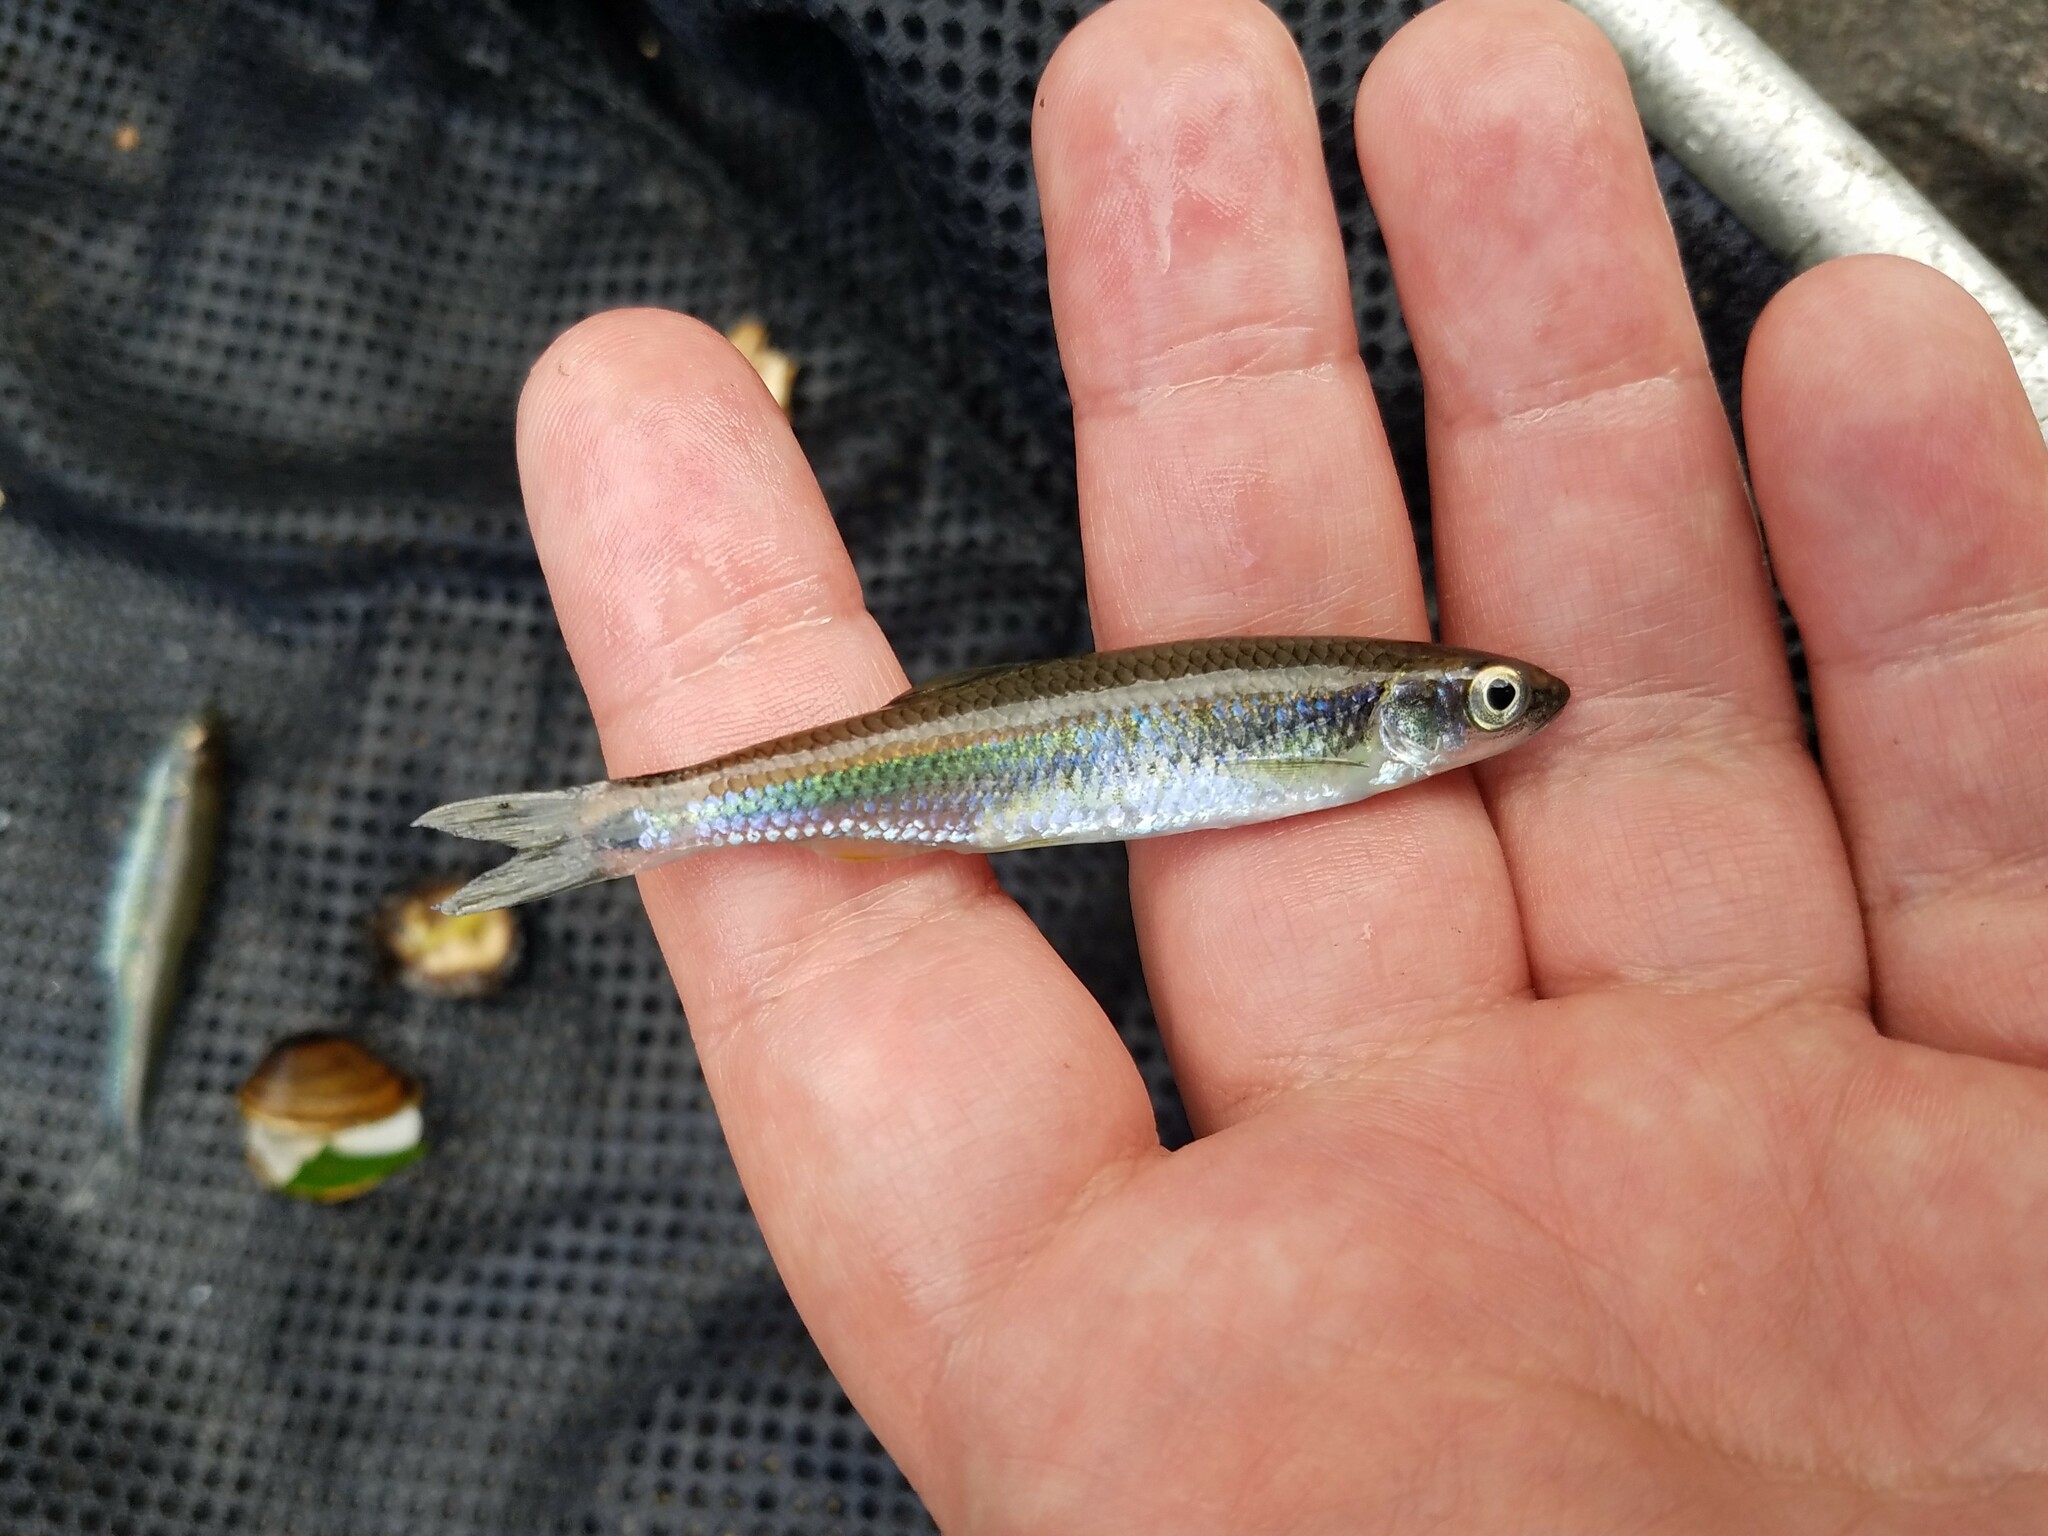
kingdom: Animalia
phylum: Chordata
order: Cypriniformes
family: Cyprinidae
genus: Cyprinella
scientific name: Cyprinella trichroistia
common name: Tricolor shiner
